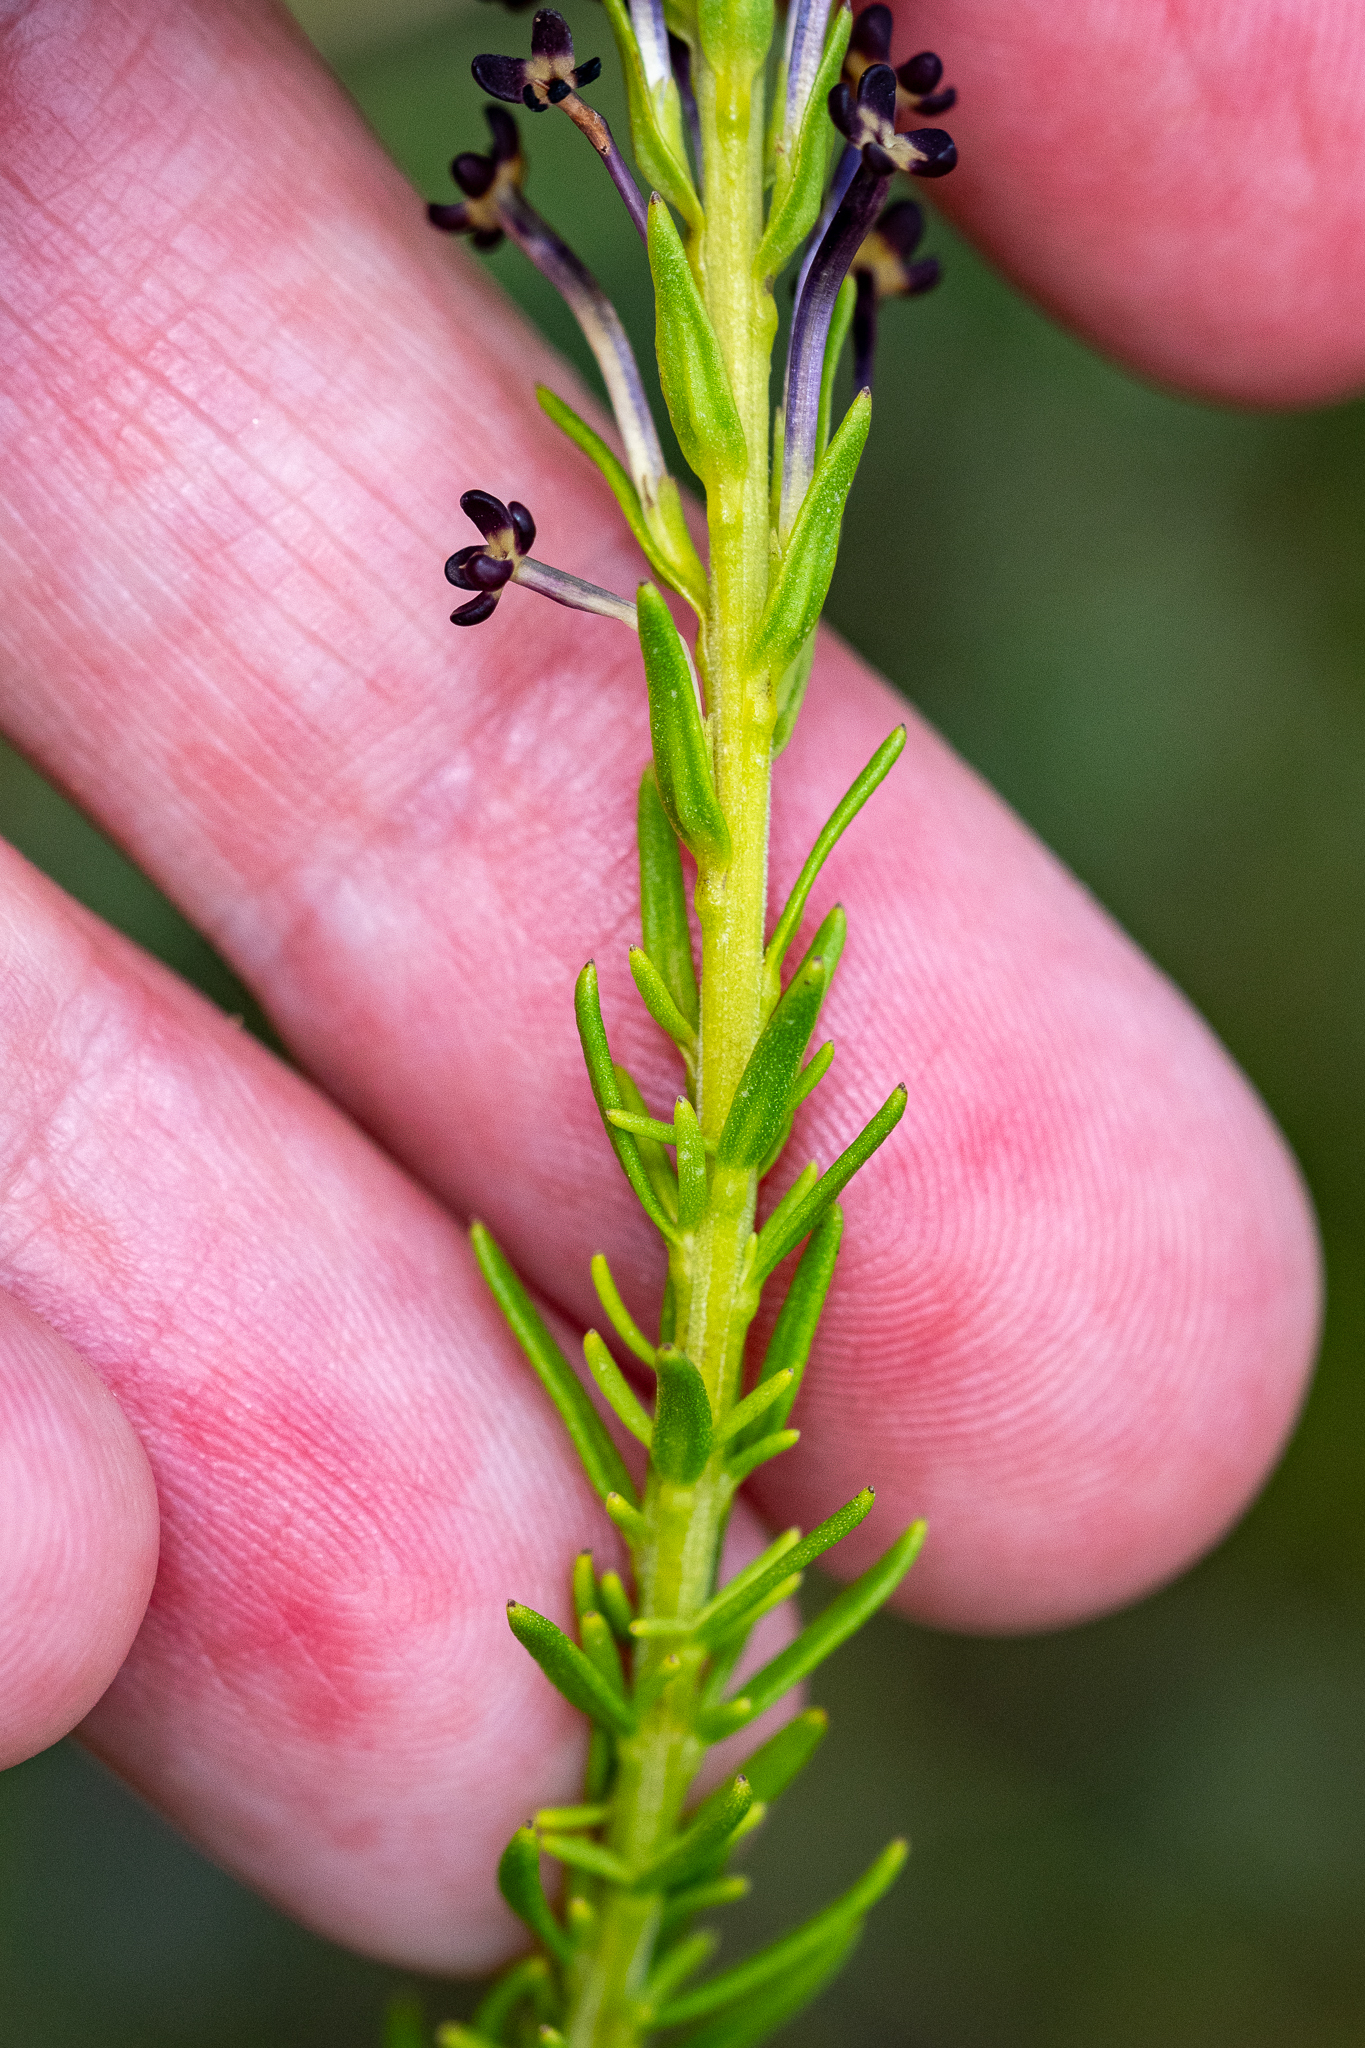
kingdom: Plantae
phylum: Tracheophyta
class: Magnoliopsida
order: Lamiales
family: Scrophulariaceae
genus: Microdon
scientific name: Microdon dubius
